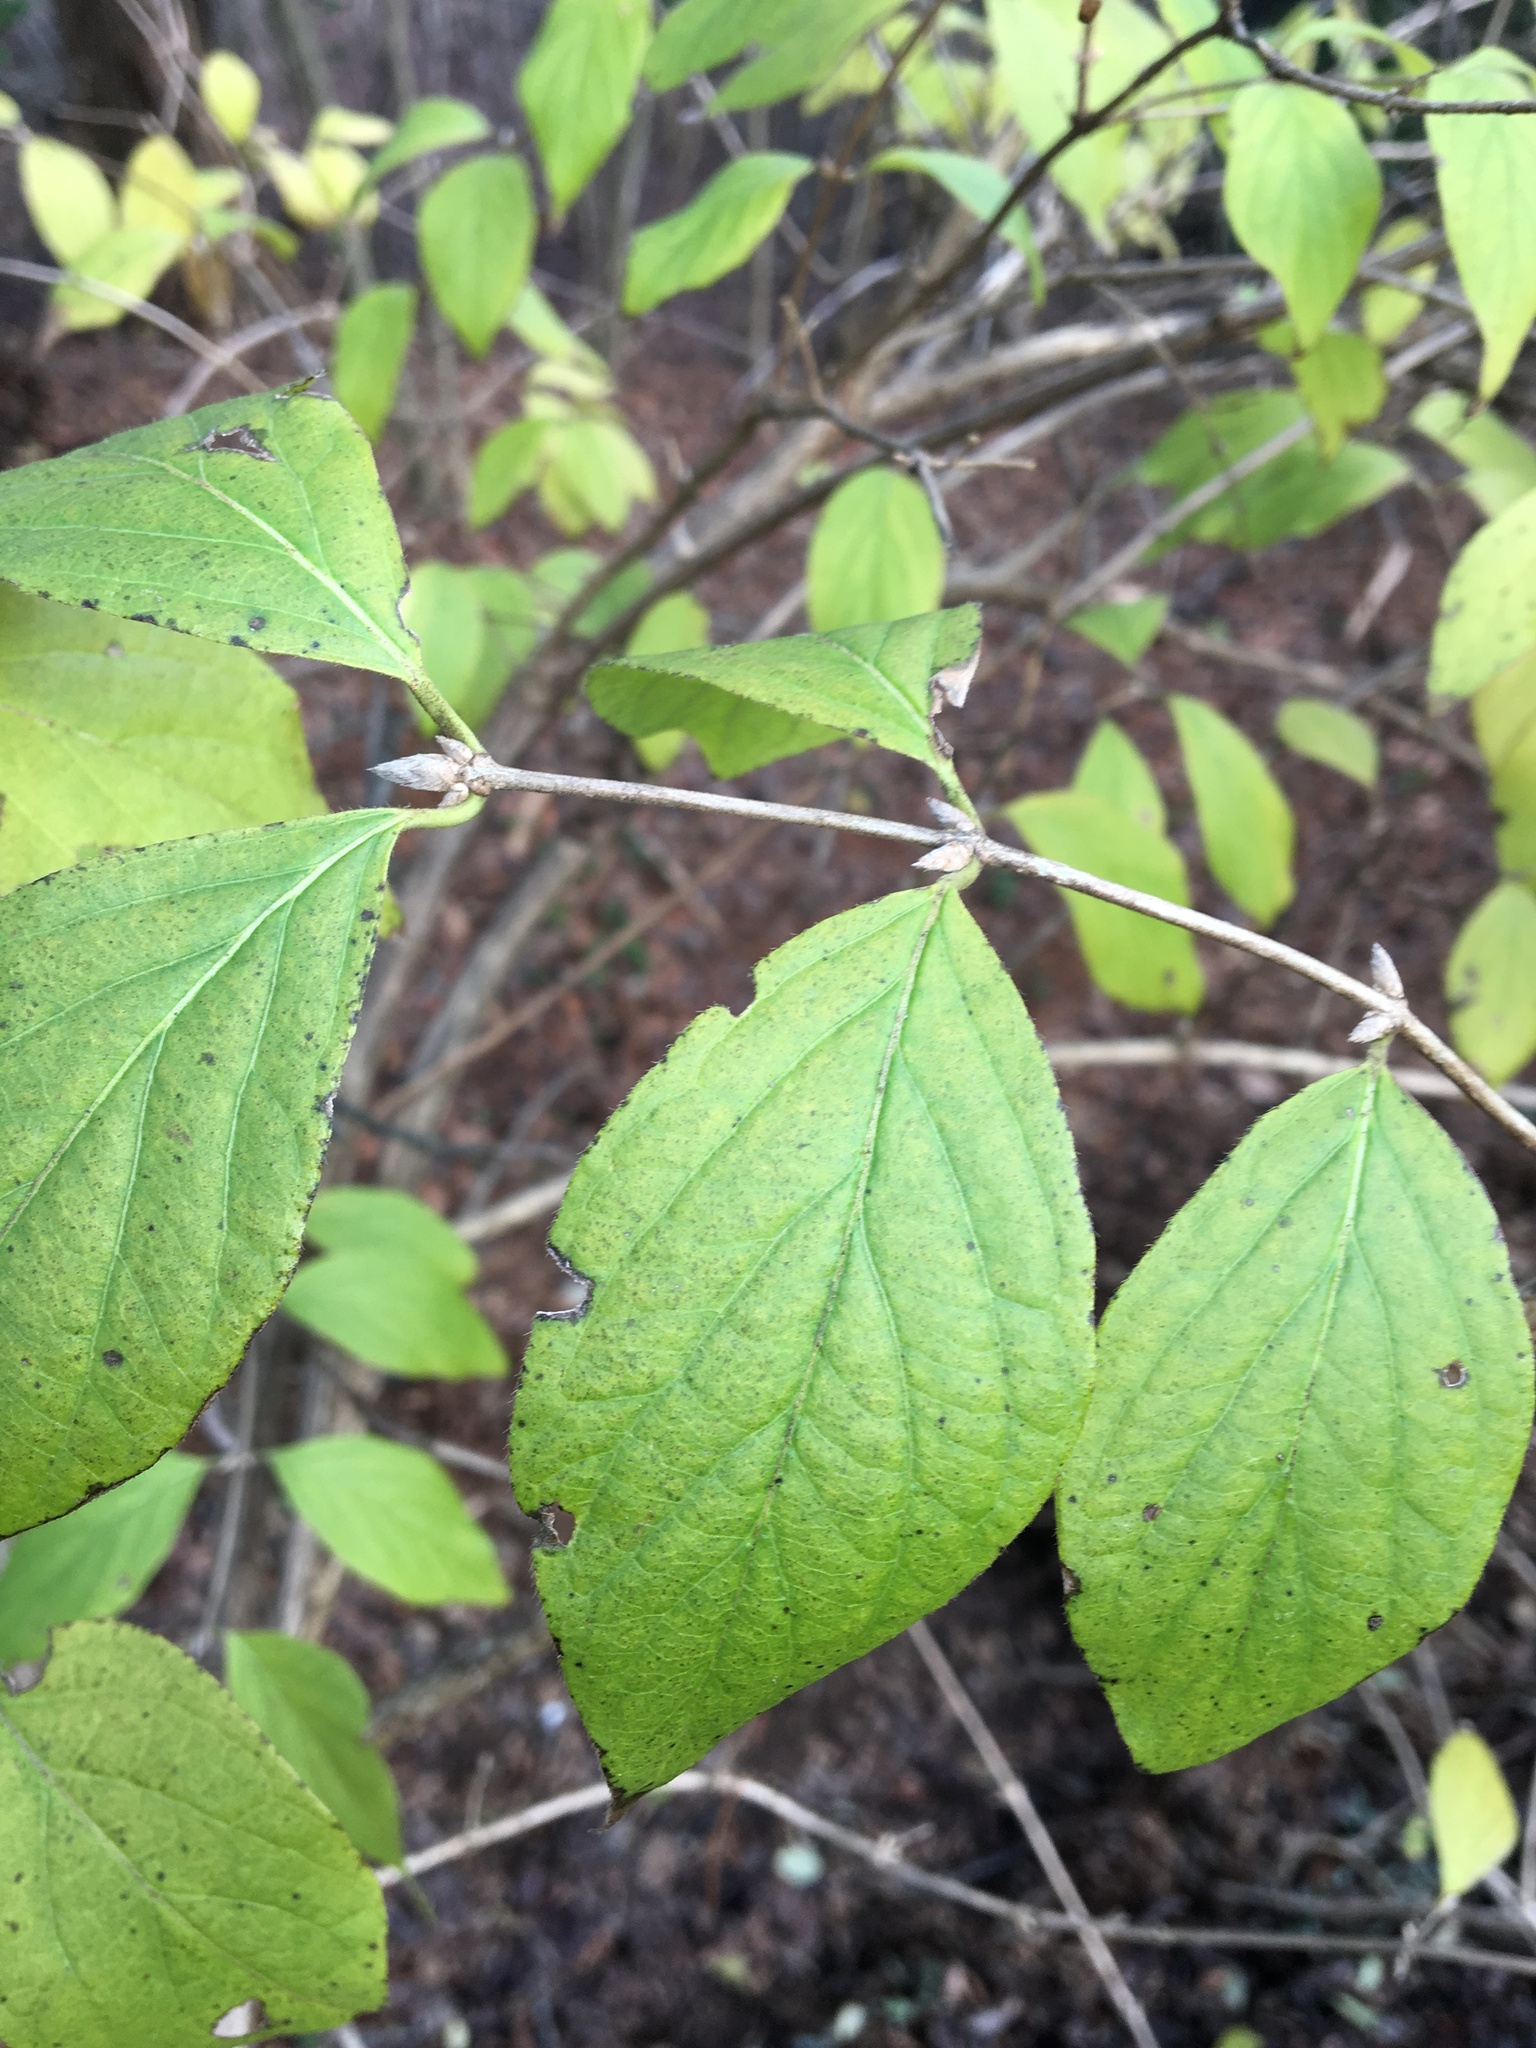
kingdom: Plantae
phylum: Tracheophyta
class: Magnoliopsida
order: Dipsacales
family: Caprifoliaceae
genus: Lonicera
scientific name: Lonicera maackii
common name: Amur honeysuckle
